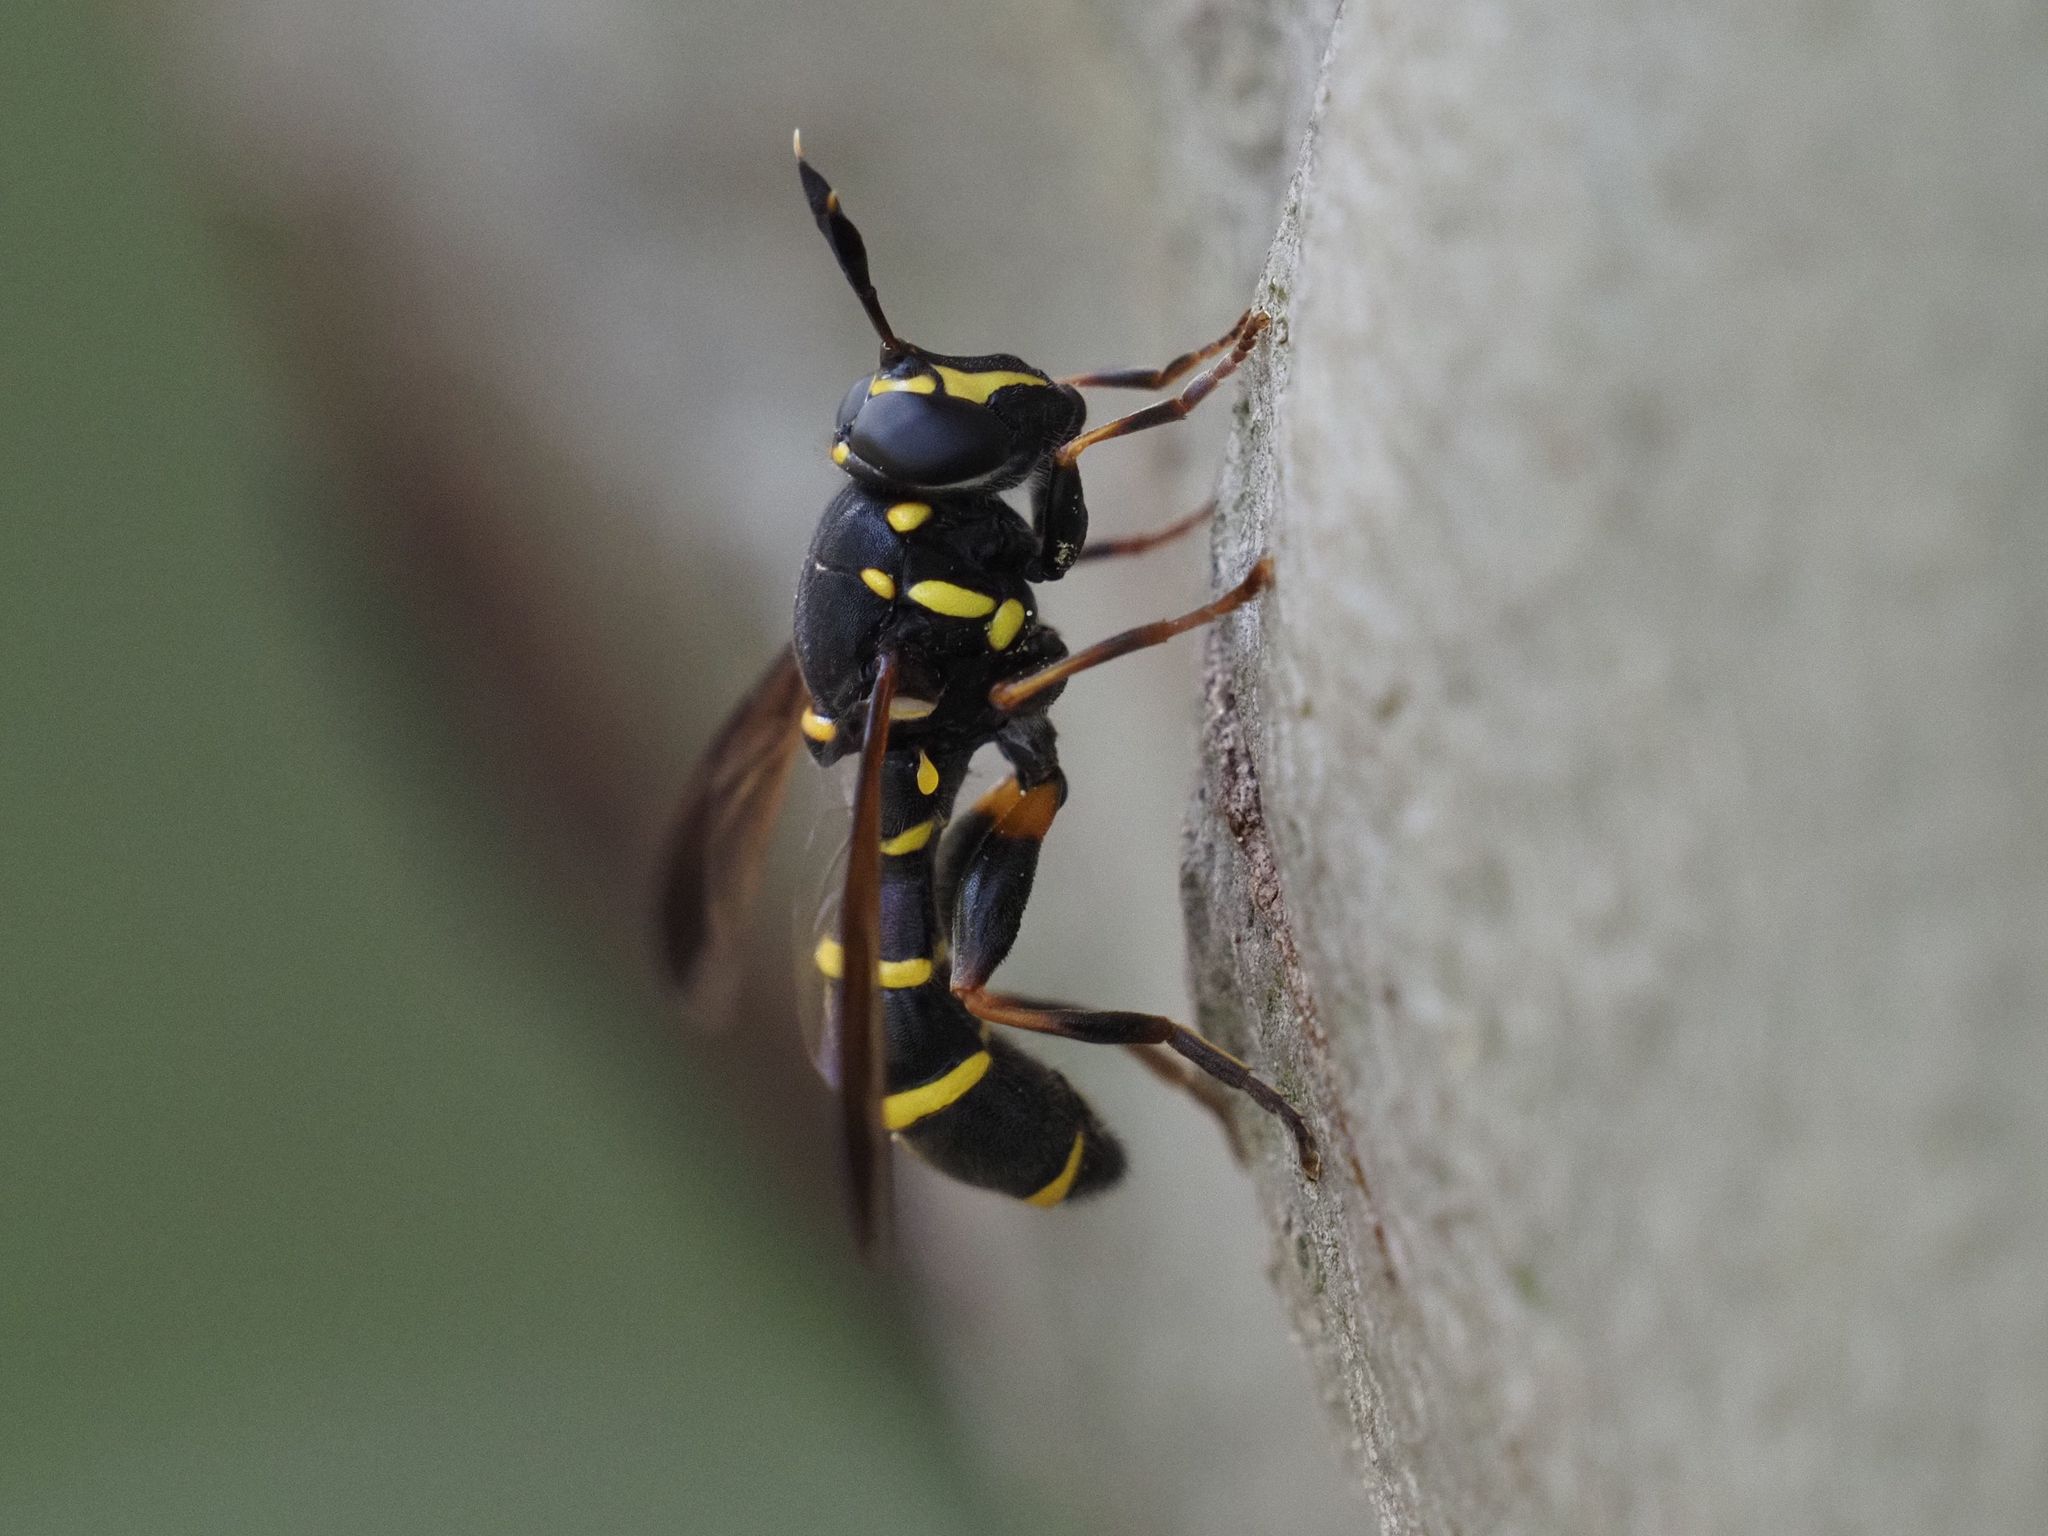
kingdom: Animalia
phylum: Arthropoda
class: Insecta
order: Diptera
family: Syrphidae
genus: Sphiximorpha
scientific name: Sphiximorpha subsessilis
